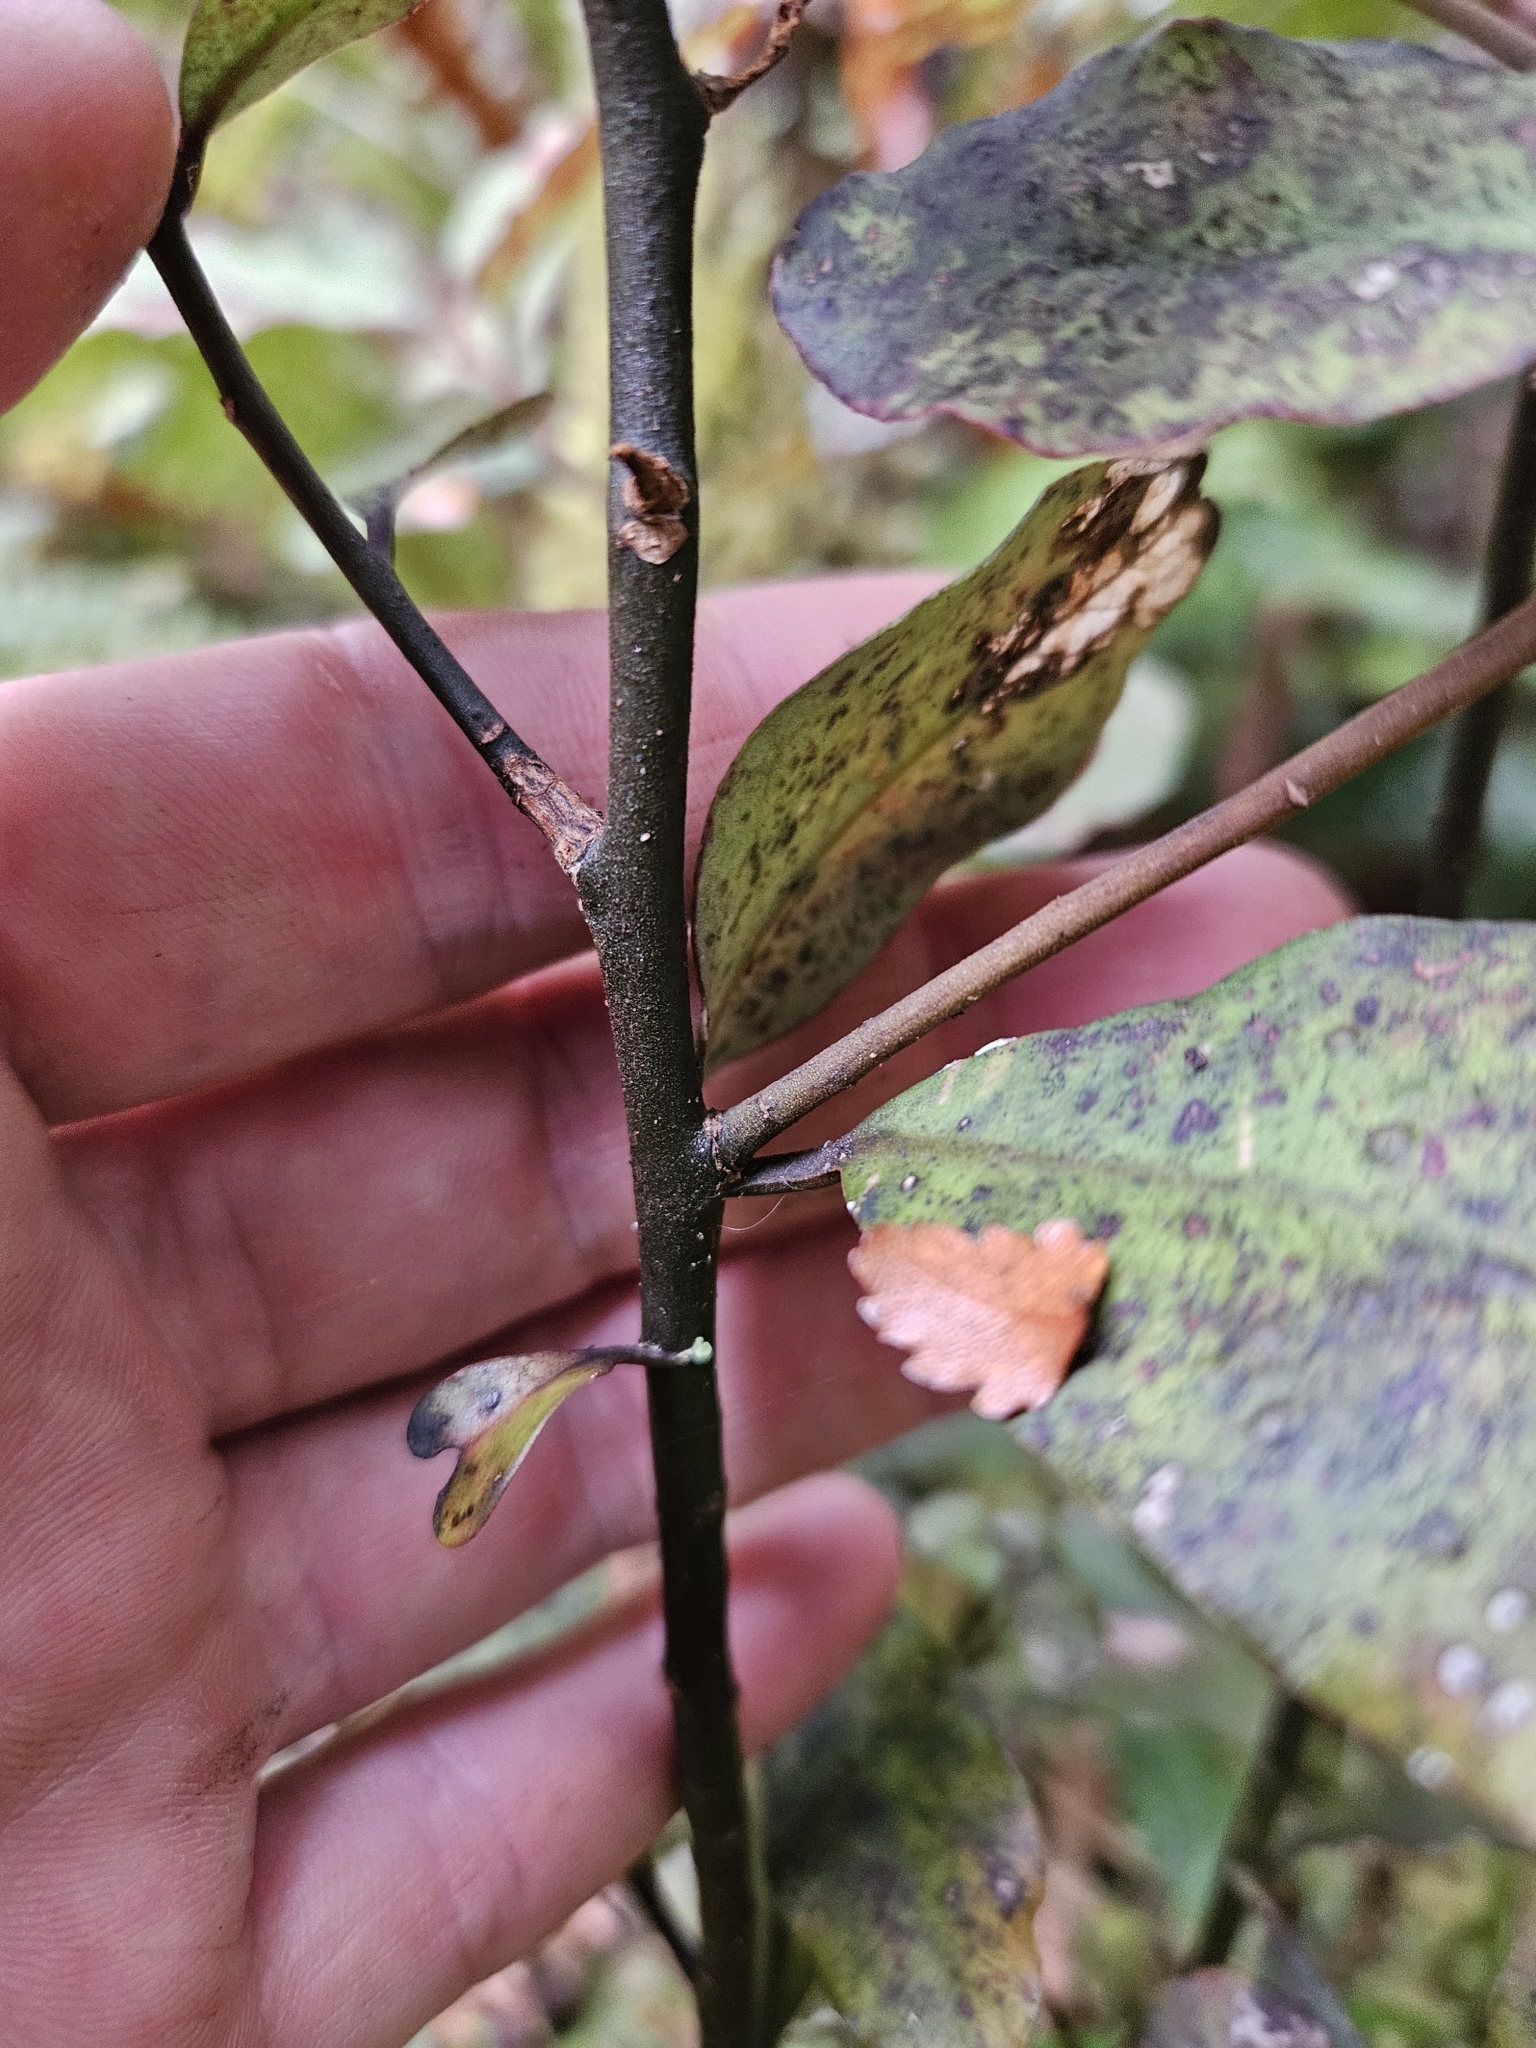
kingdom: Plantae
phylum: Tracheophyta
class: Magnoliopsida
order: Canellales
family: Winteraceae
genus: Pseudowintera
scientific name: Pseudowintera colorata
